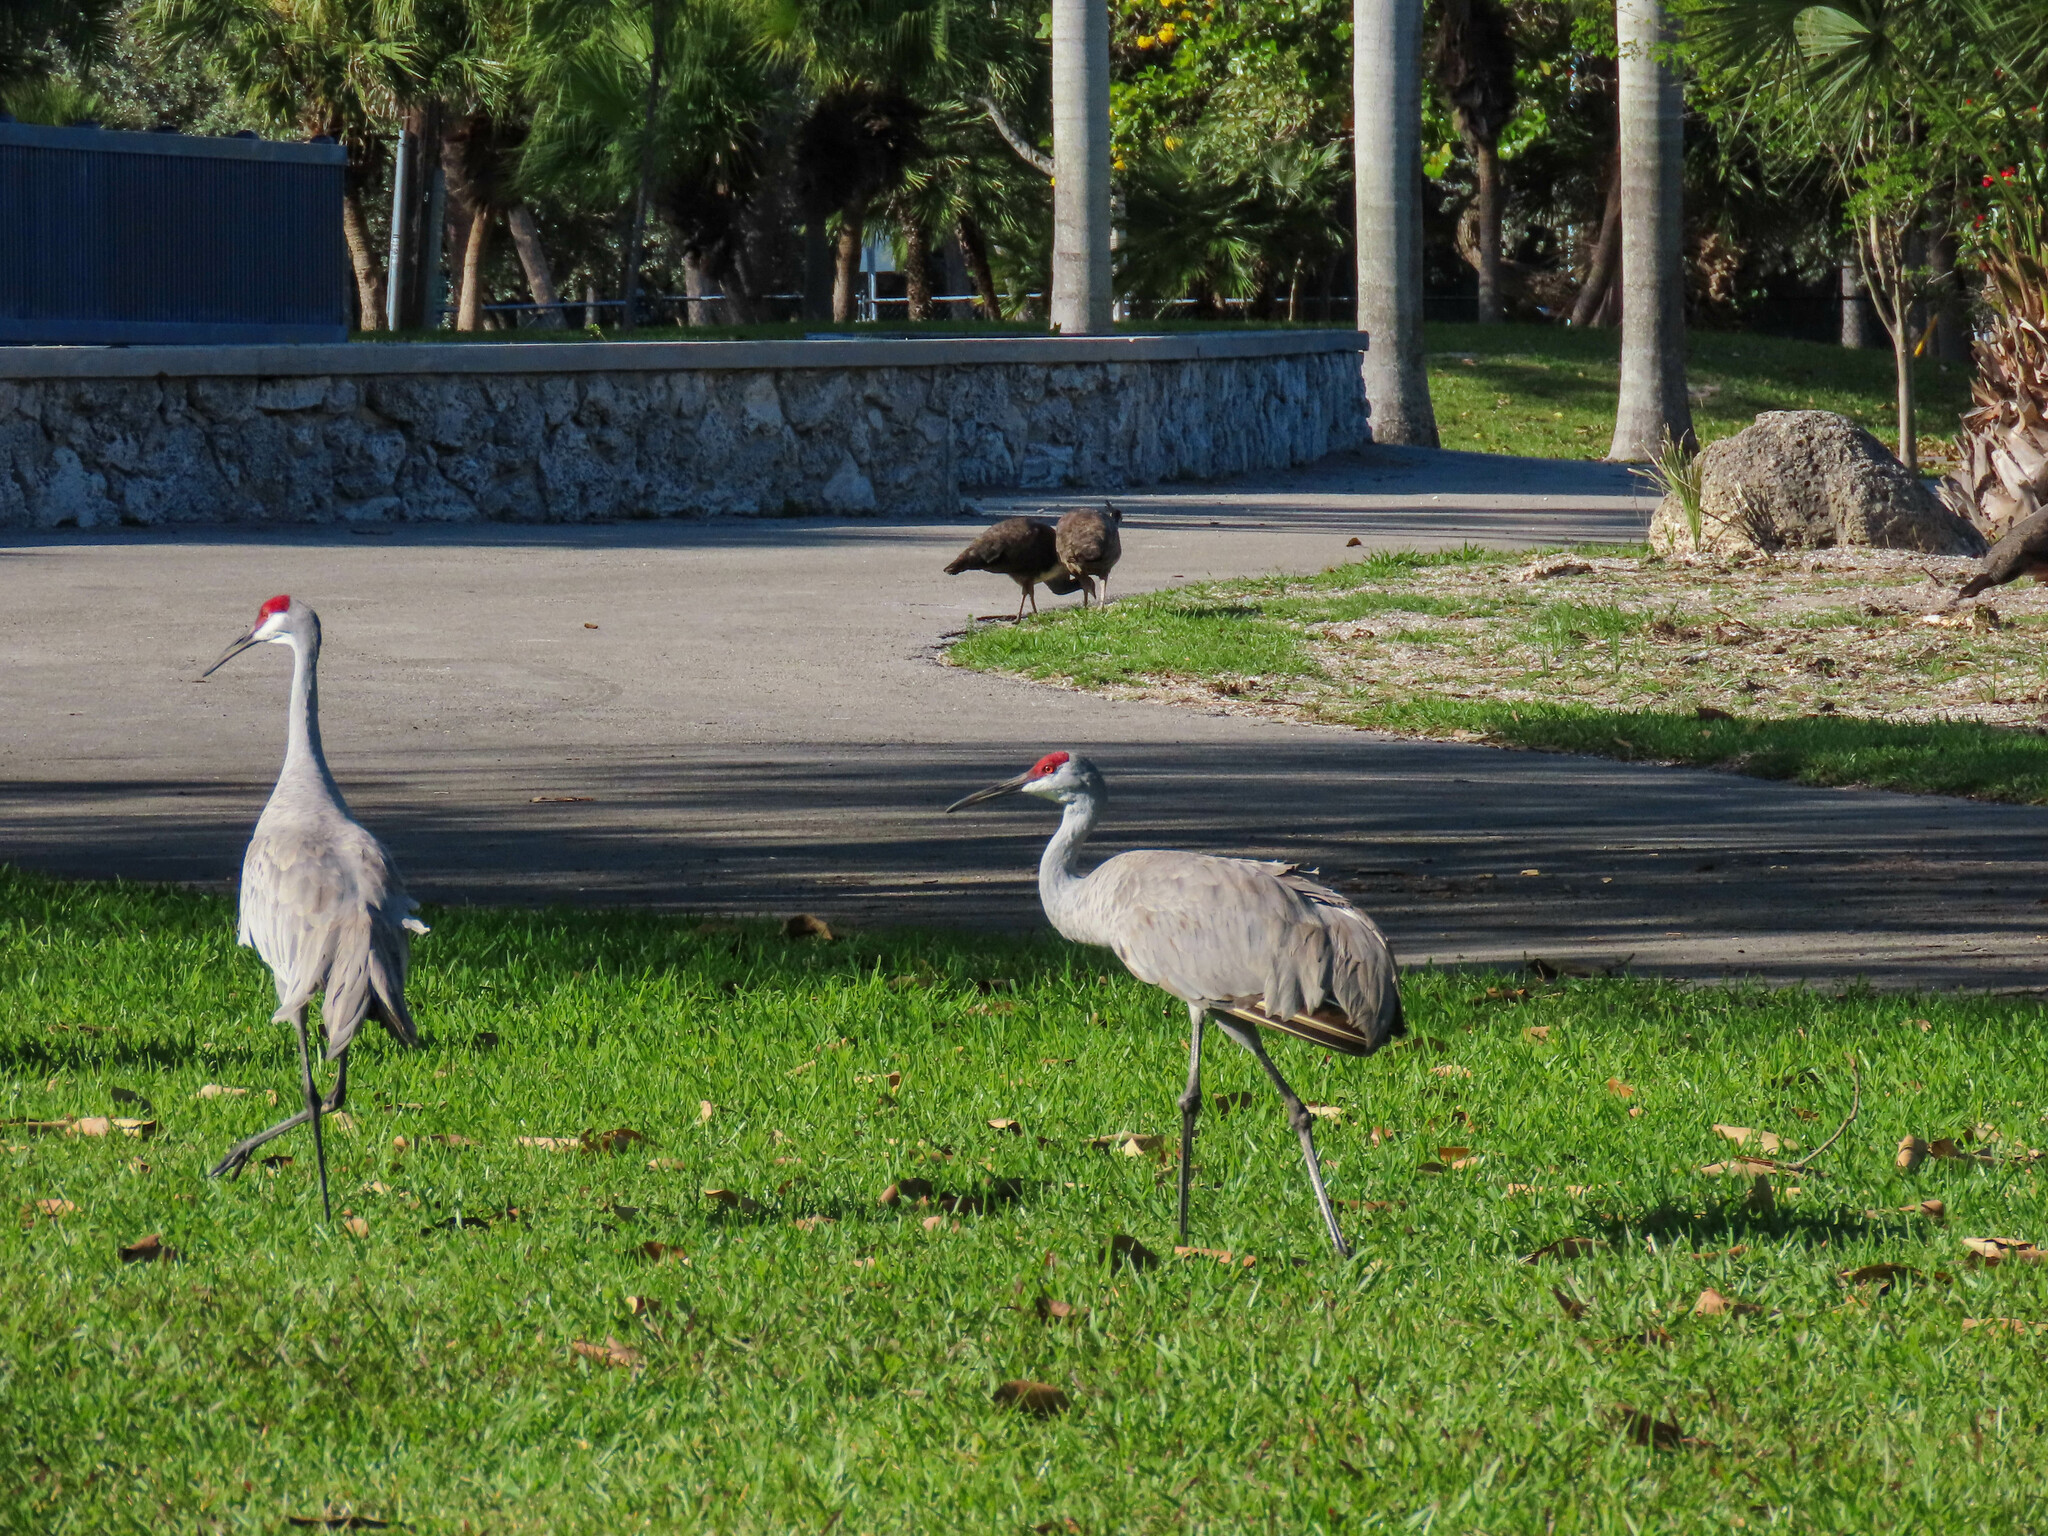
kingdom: Animalia
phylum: Chordata
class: Aves
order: Gruiformes
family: Gruidae
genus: Grus
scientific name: Grus canadensis
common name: Sandhill crane
